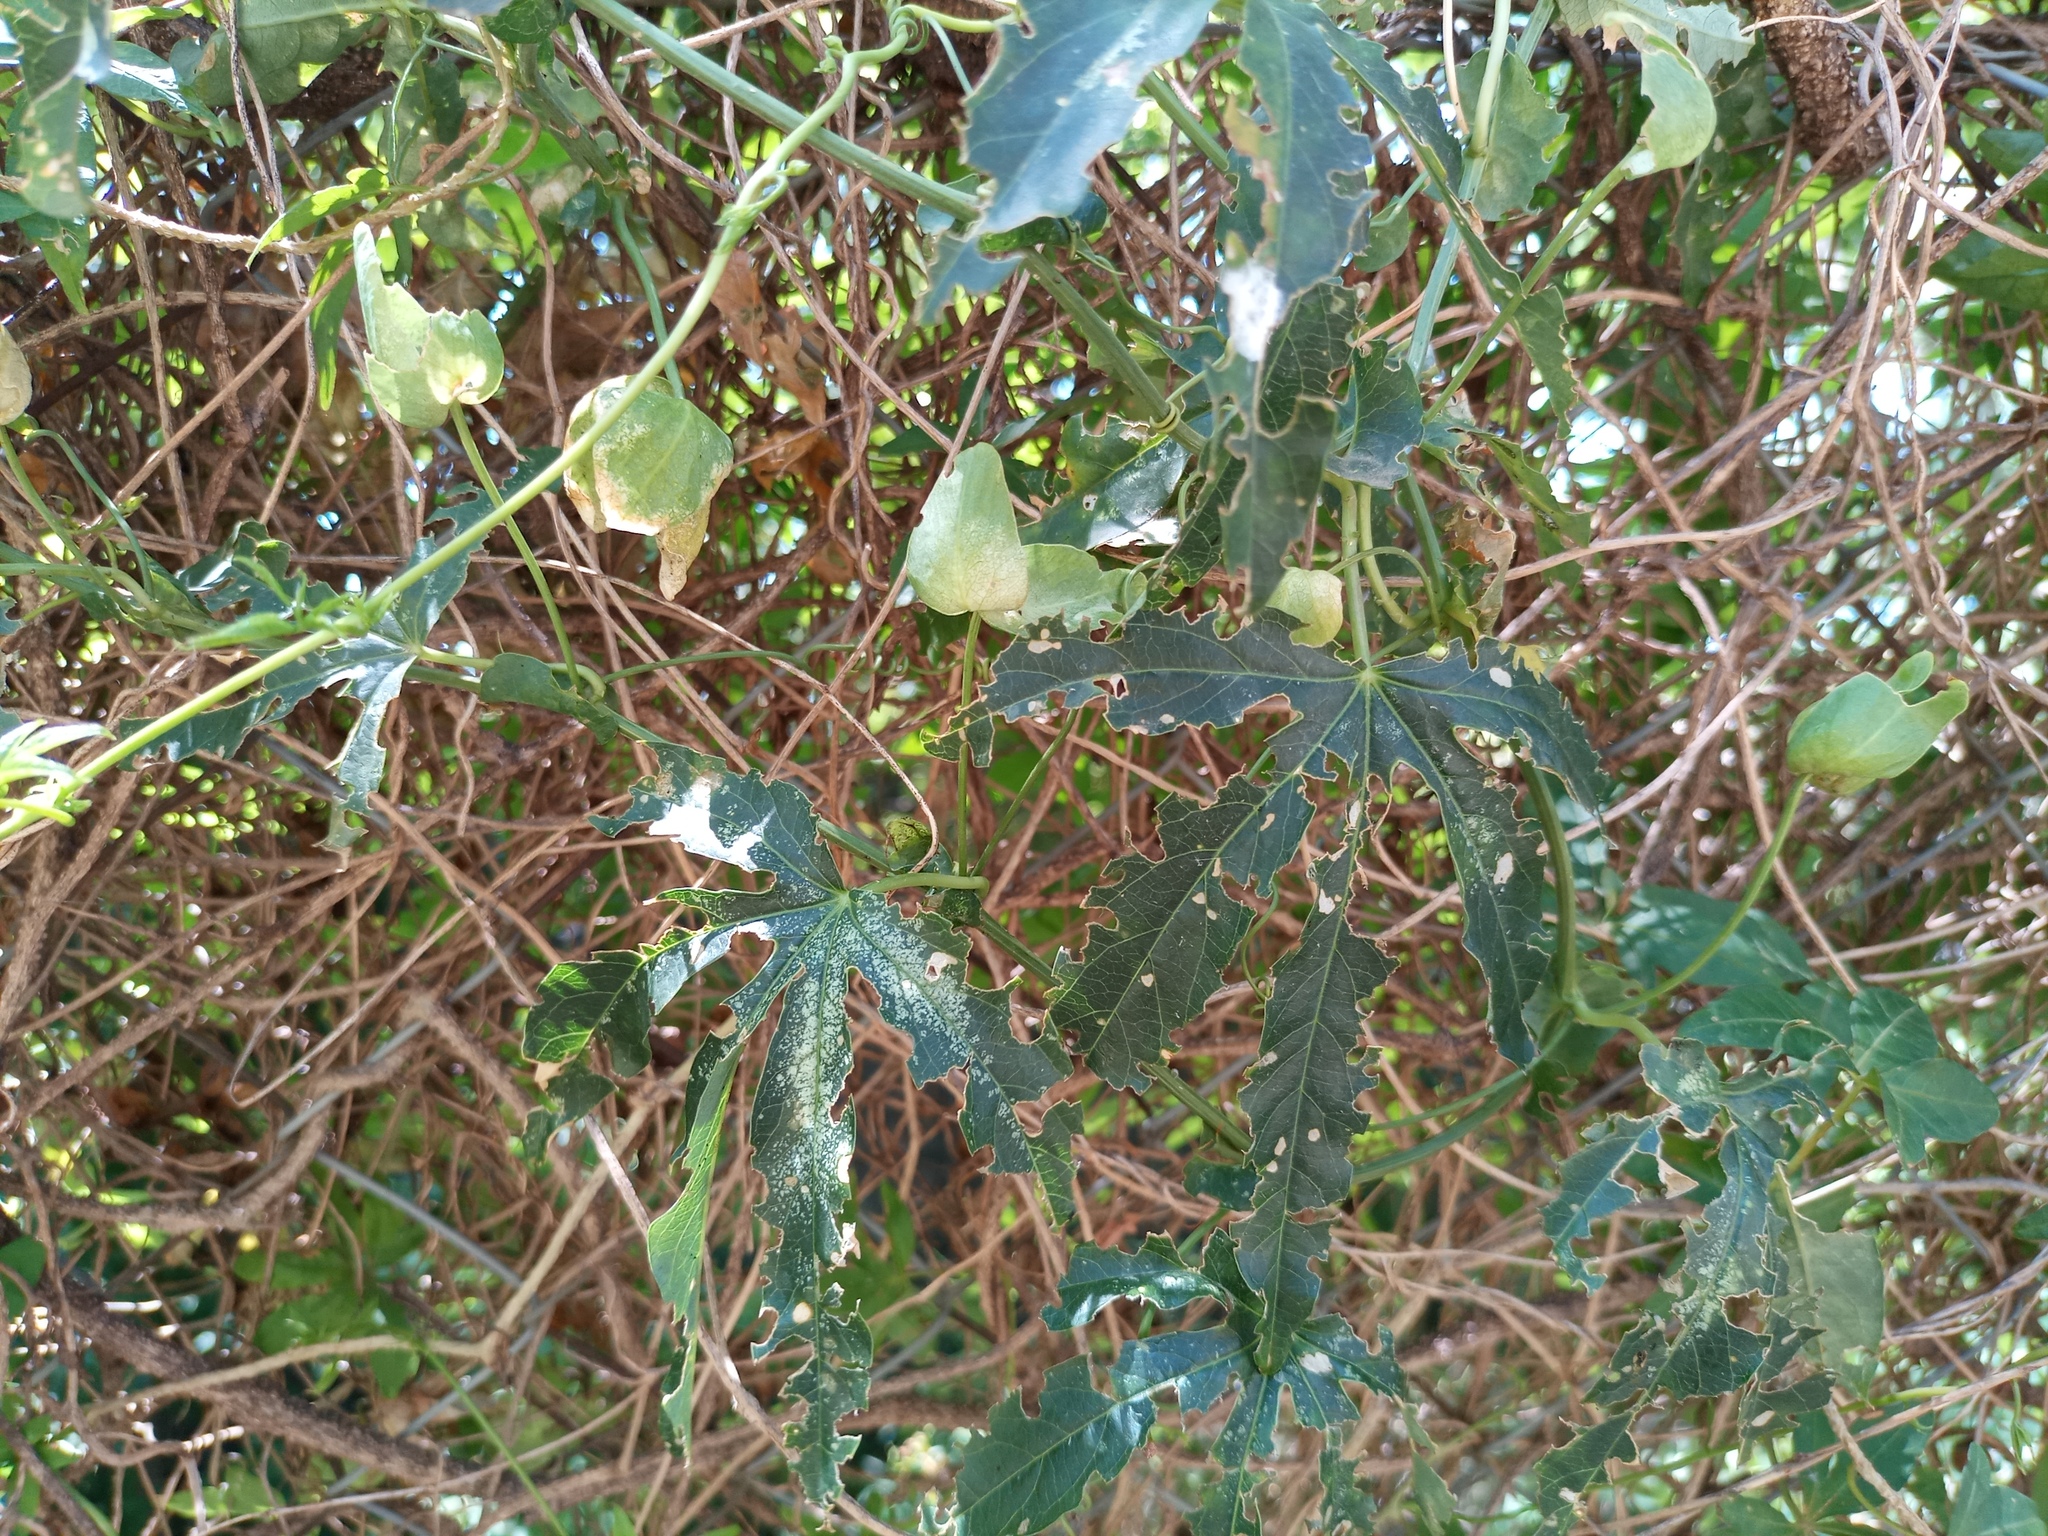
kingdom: Plantae
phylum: Tracheophyta
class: Magnoliopsida
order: Malpighiales
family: Passifloraceae
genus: Passiflora
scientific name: Passiflora caerulea
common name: Blue passionflower
